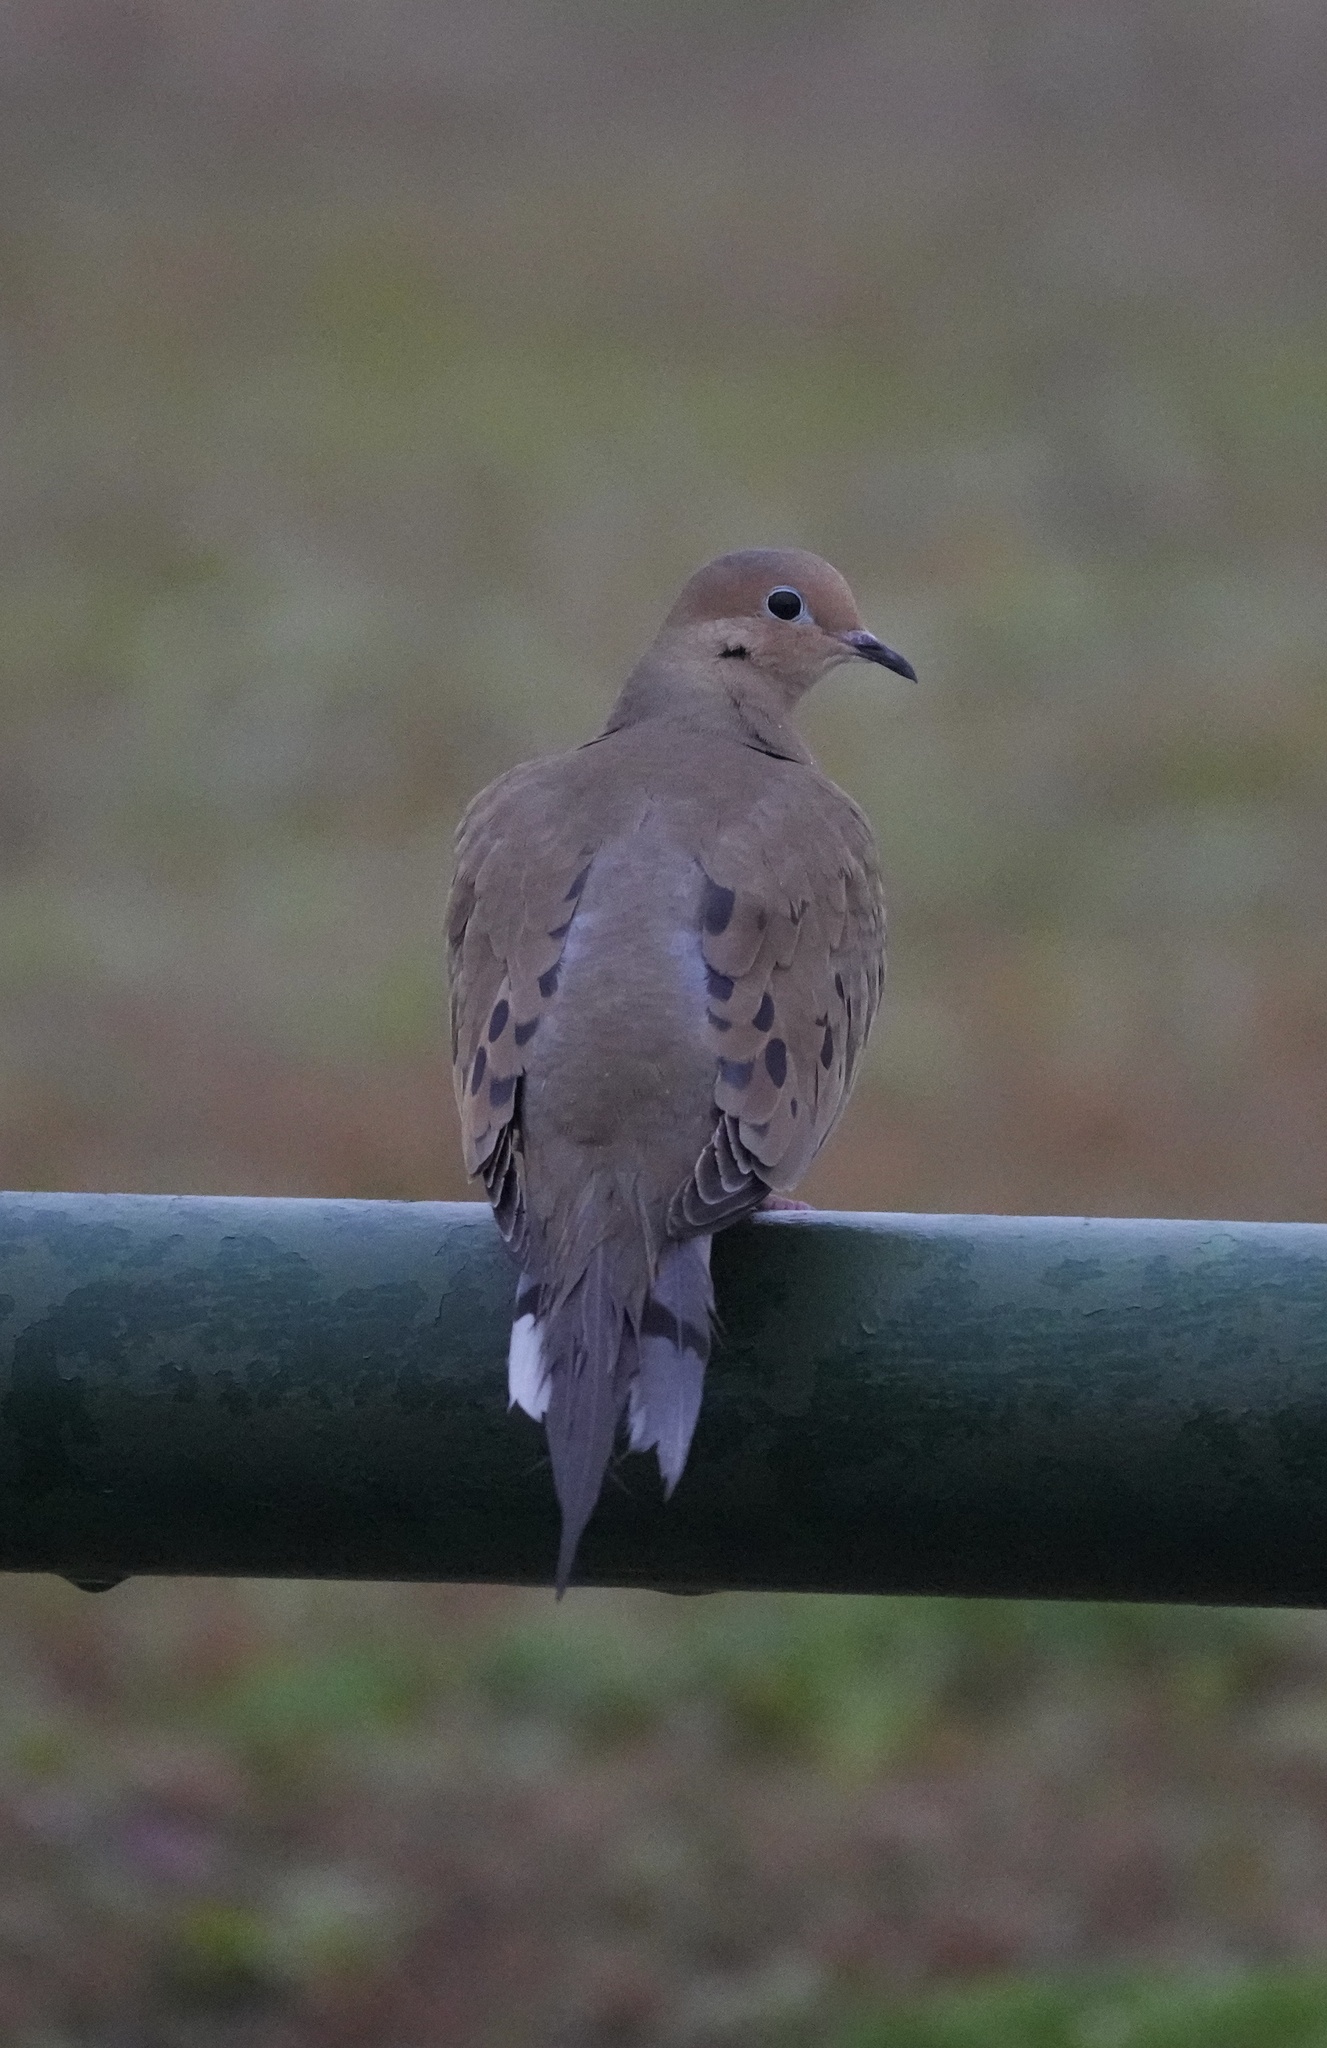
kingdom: Animalia
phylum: Chordata
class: Aves
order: Columbiformes
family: Columbidae
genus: Zenaida
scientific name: Zenaida macroura
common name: Mourning dove
